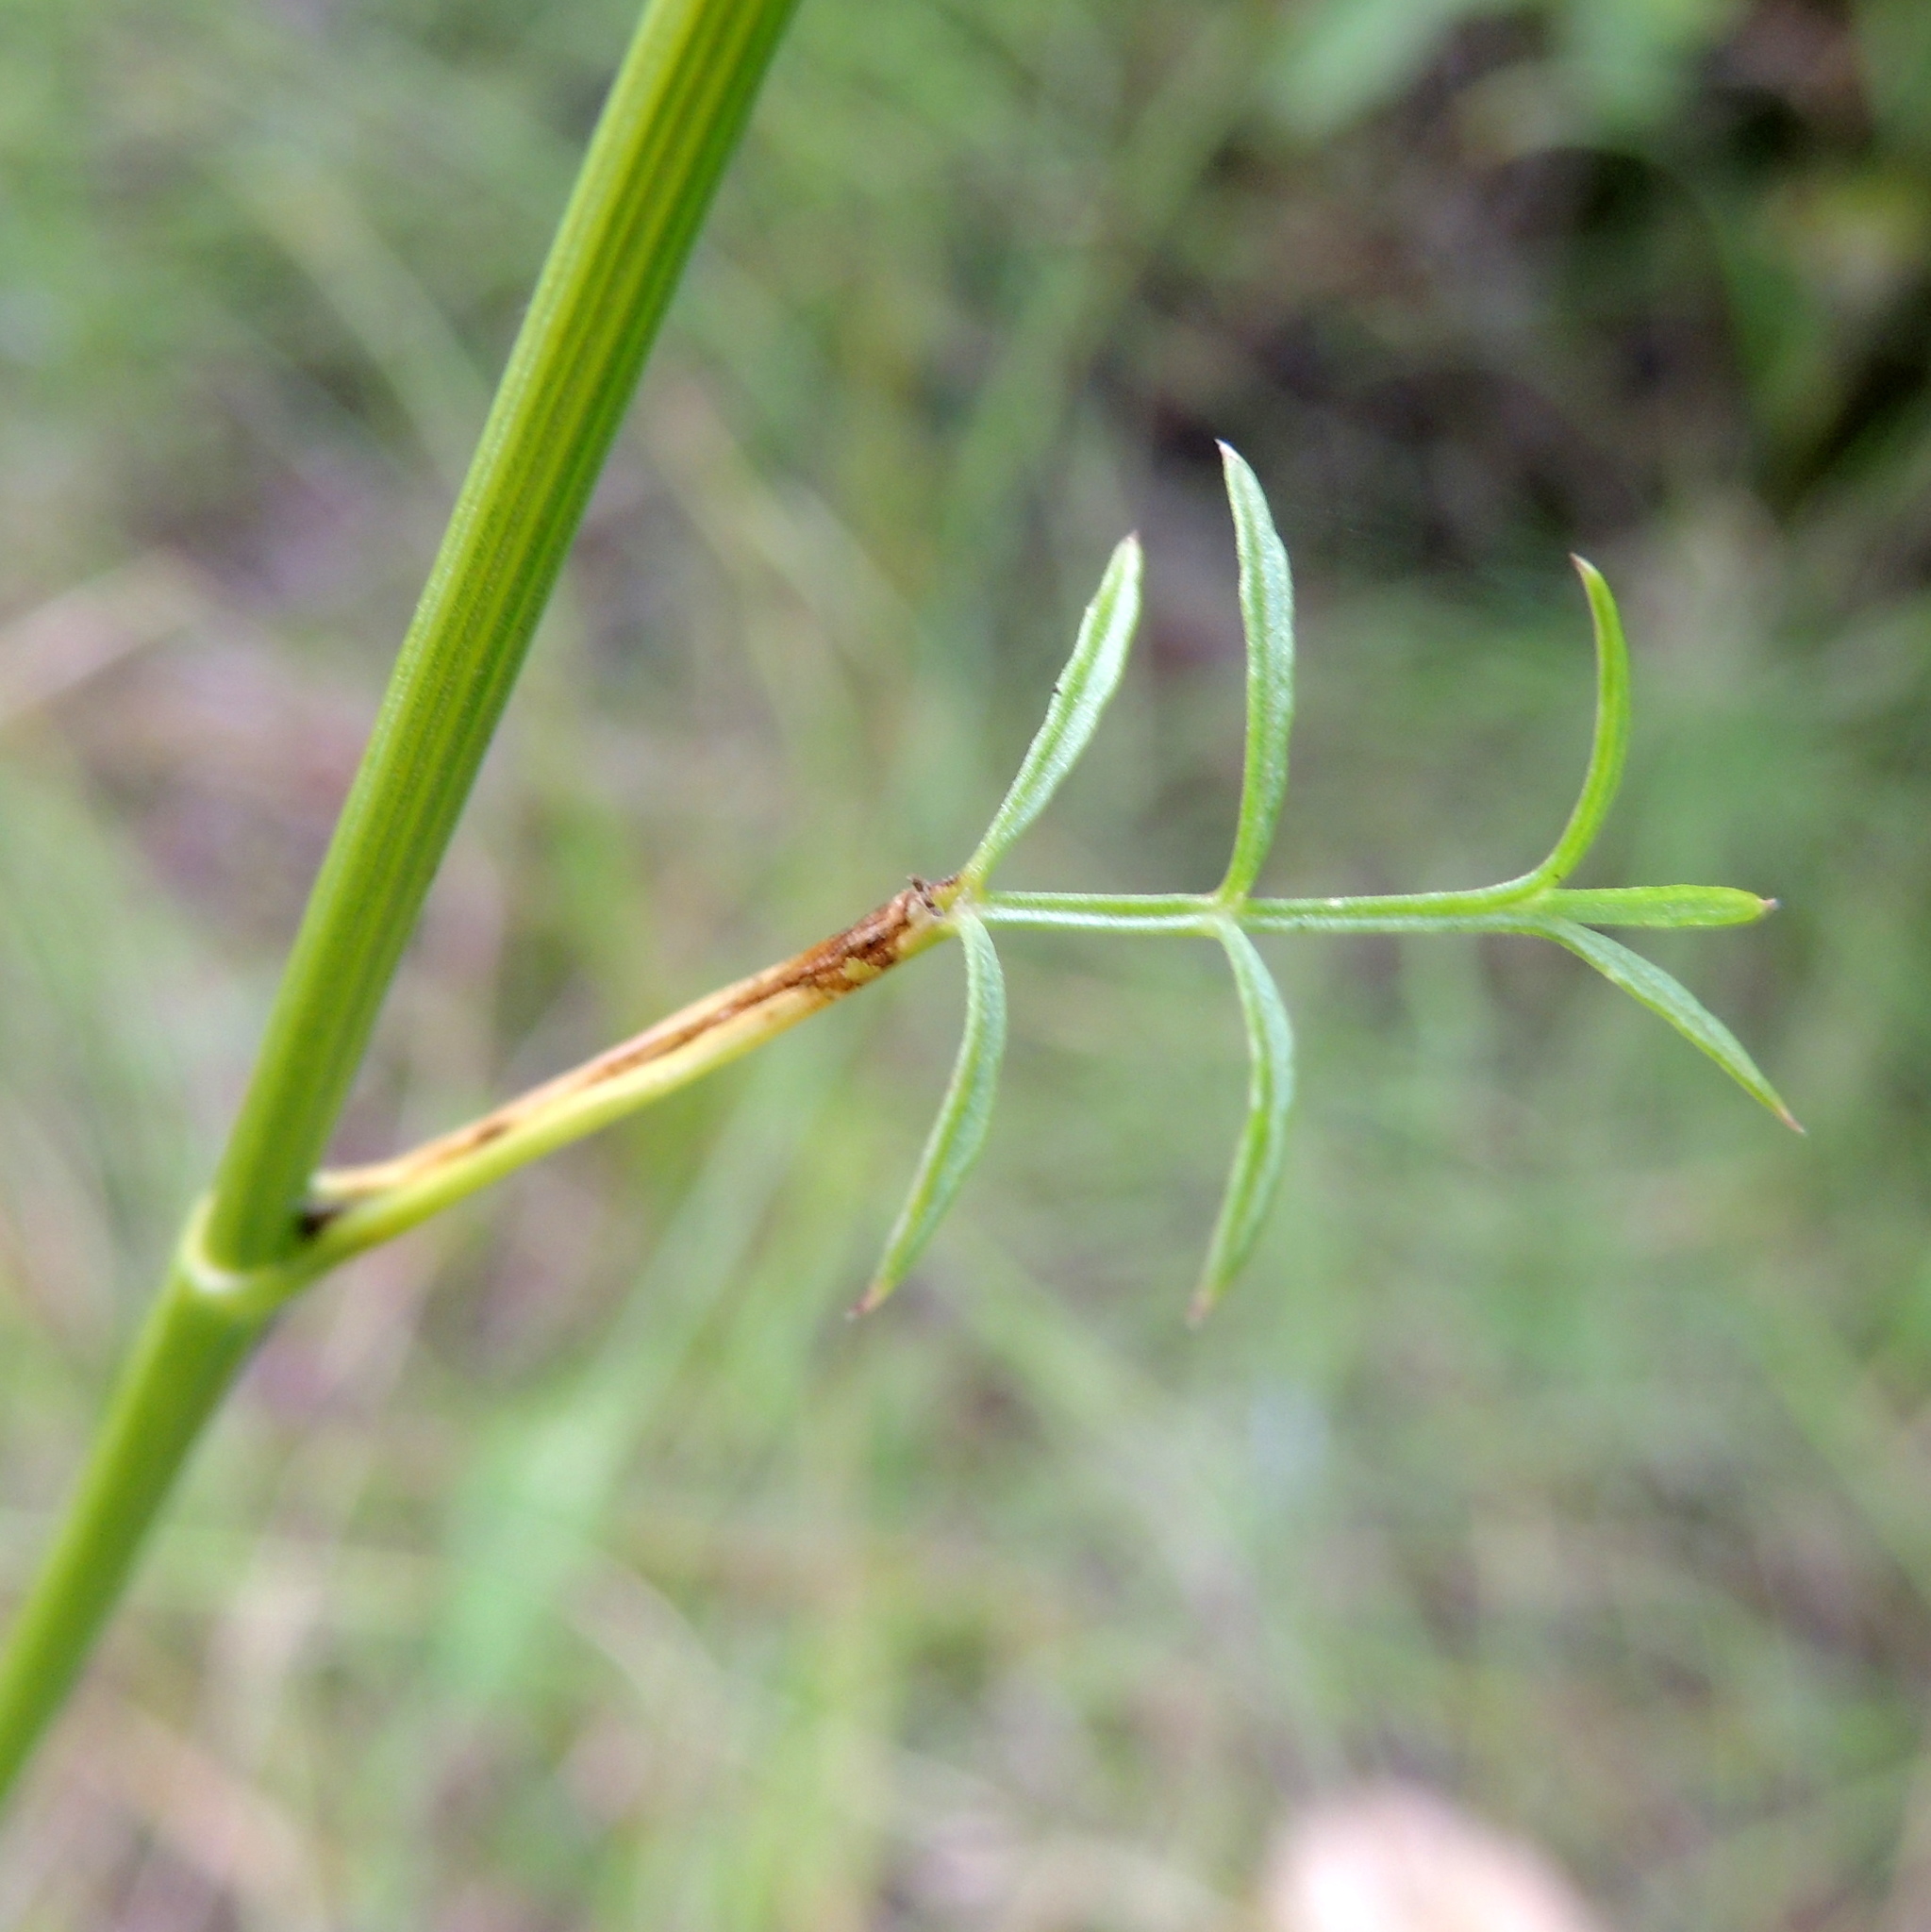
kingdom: Plantae
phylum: Tracheophyta
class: Magnoliopsida
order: Apiales
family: Apiaceae
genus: Pimpinella
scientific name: Pimpinella saxifraga
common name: Burnet-saxifrage
